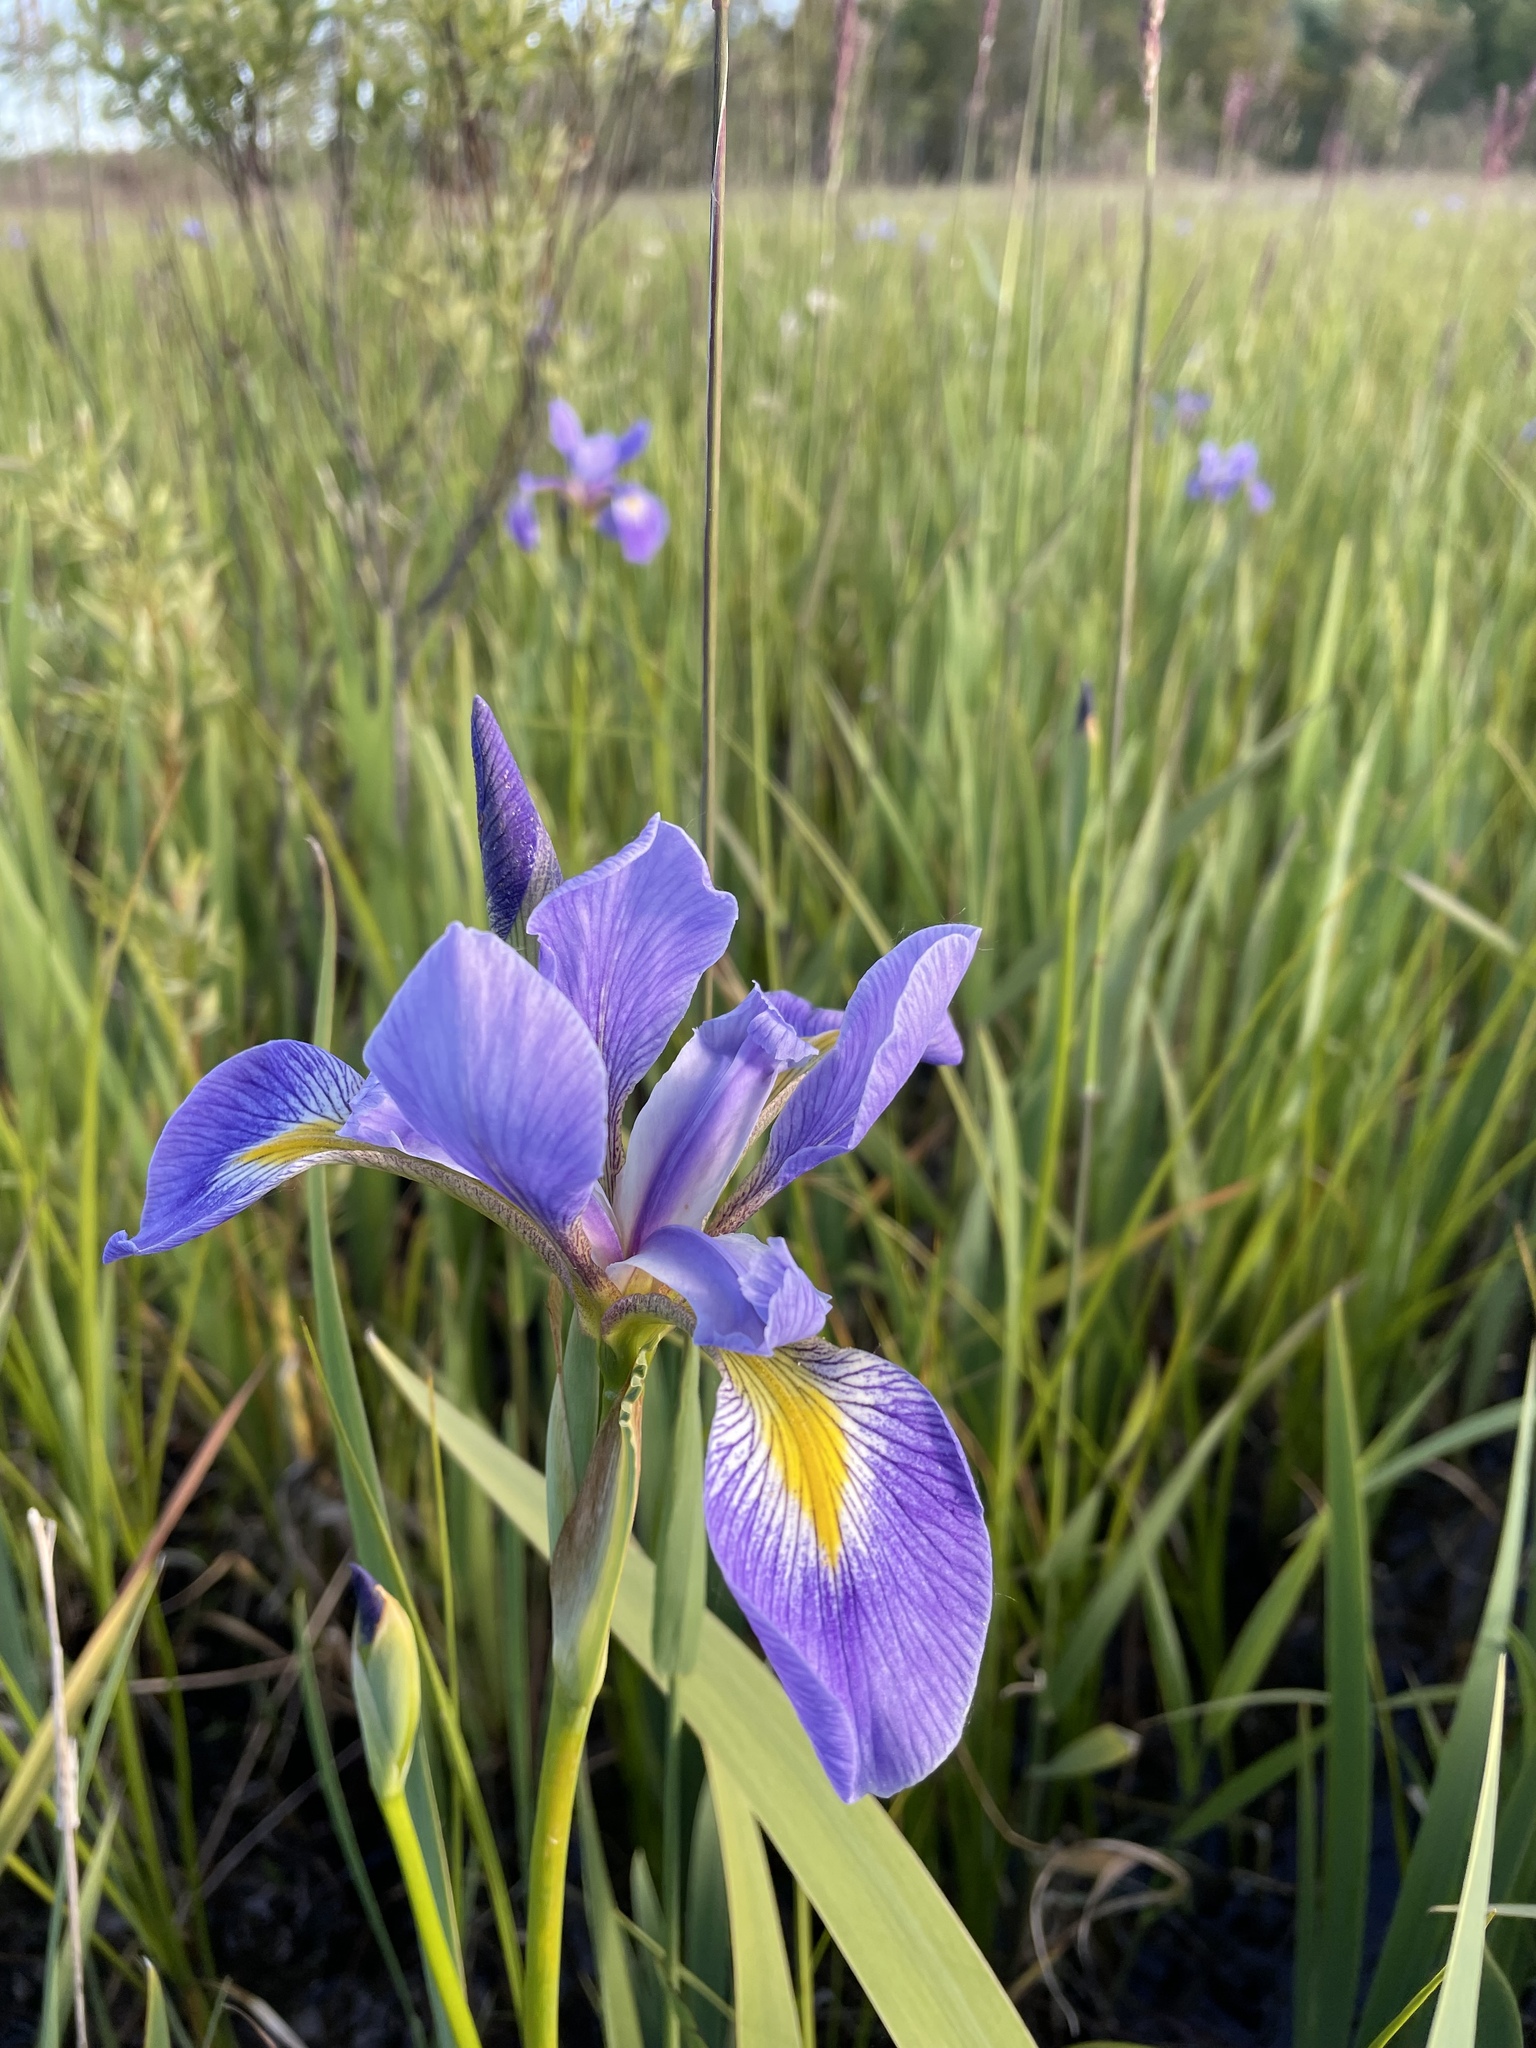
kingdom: Plantae
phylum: Tracheophyta
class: Liliopsida
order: Asparagales
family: Iridaceae
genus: Iris
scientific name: Iris virginica
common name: Southern blue flag
